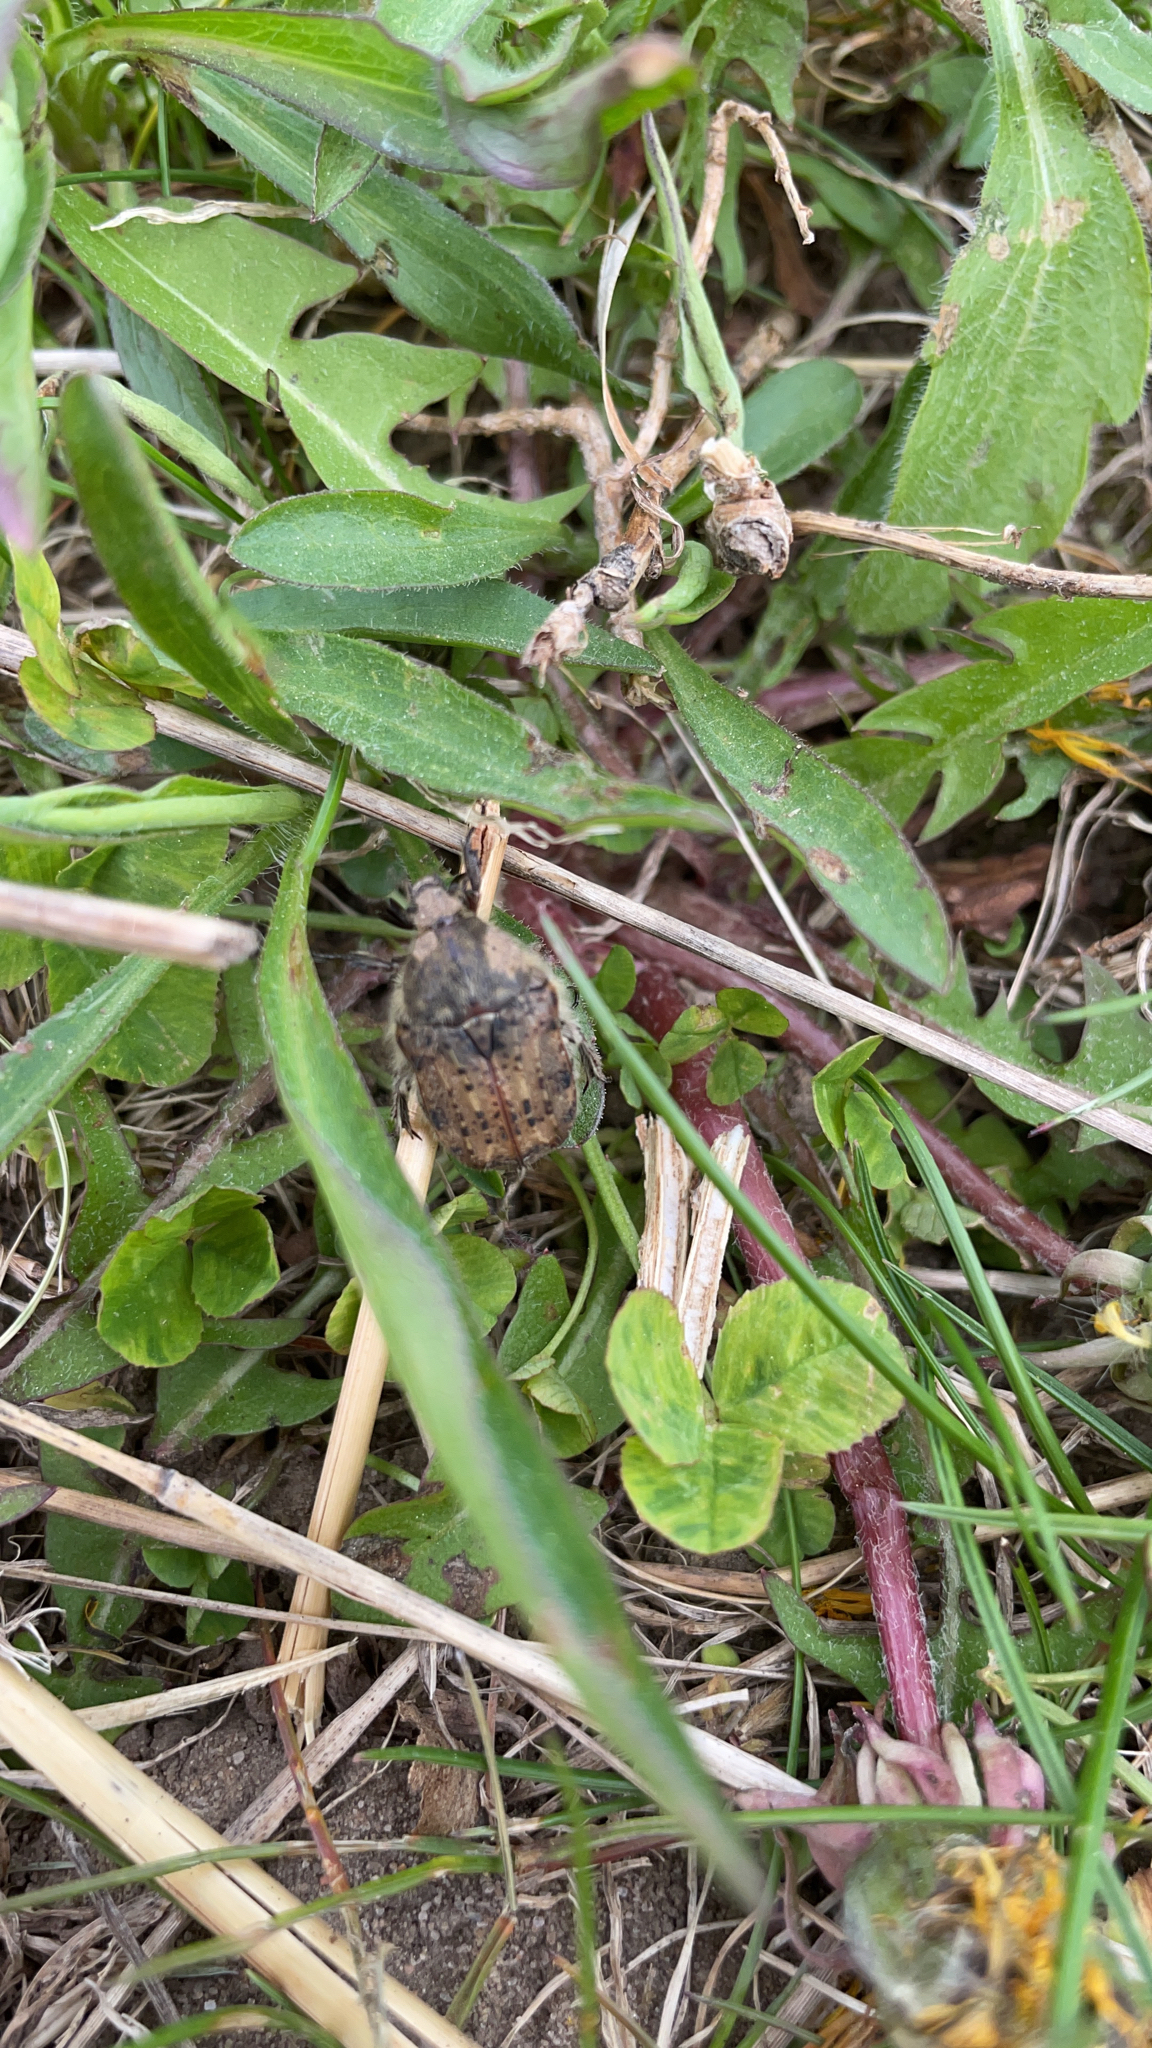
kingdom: Animalia
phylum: Arthropoda
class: Insecta
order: Coleoptera
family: Scarabaeidae
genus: Euphoria
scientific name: Euphoria inda
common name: Bumble flower beetle
